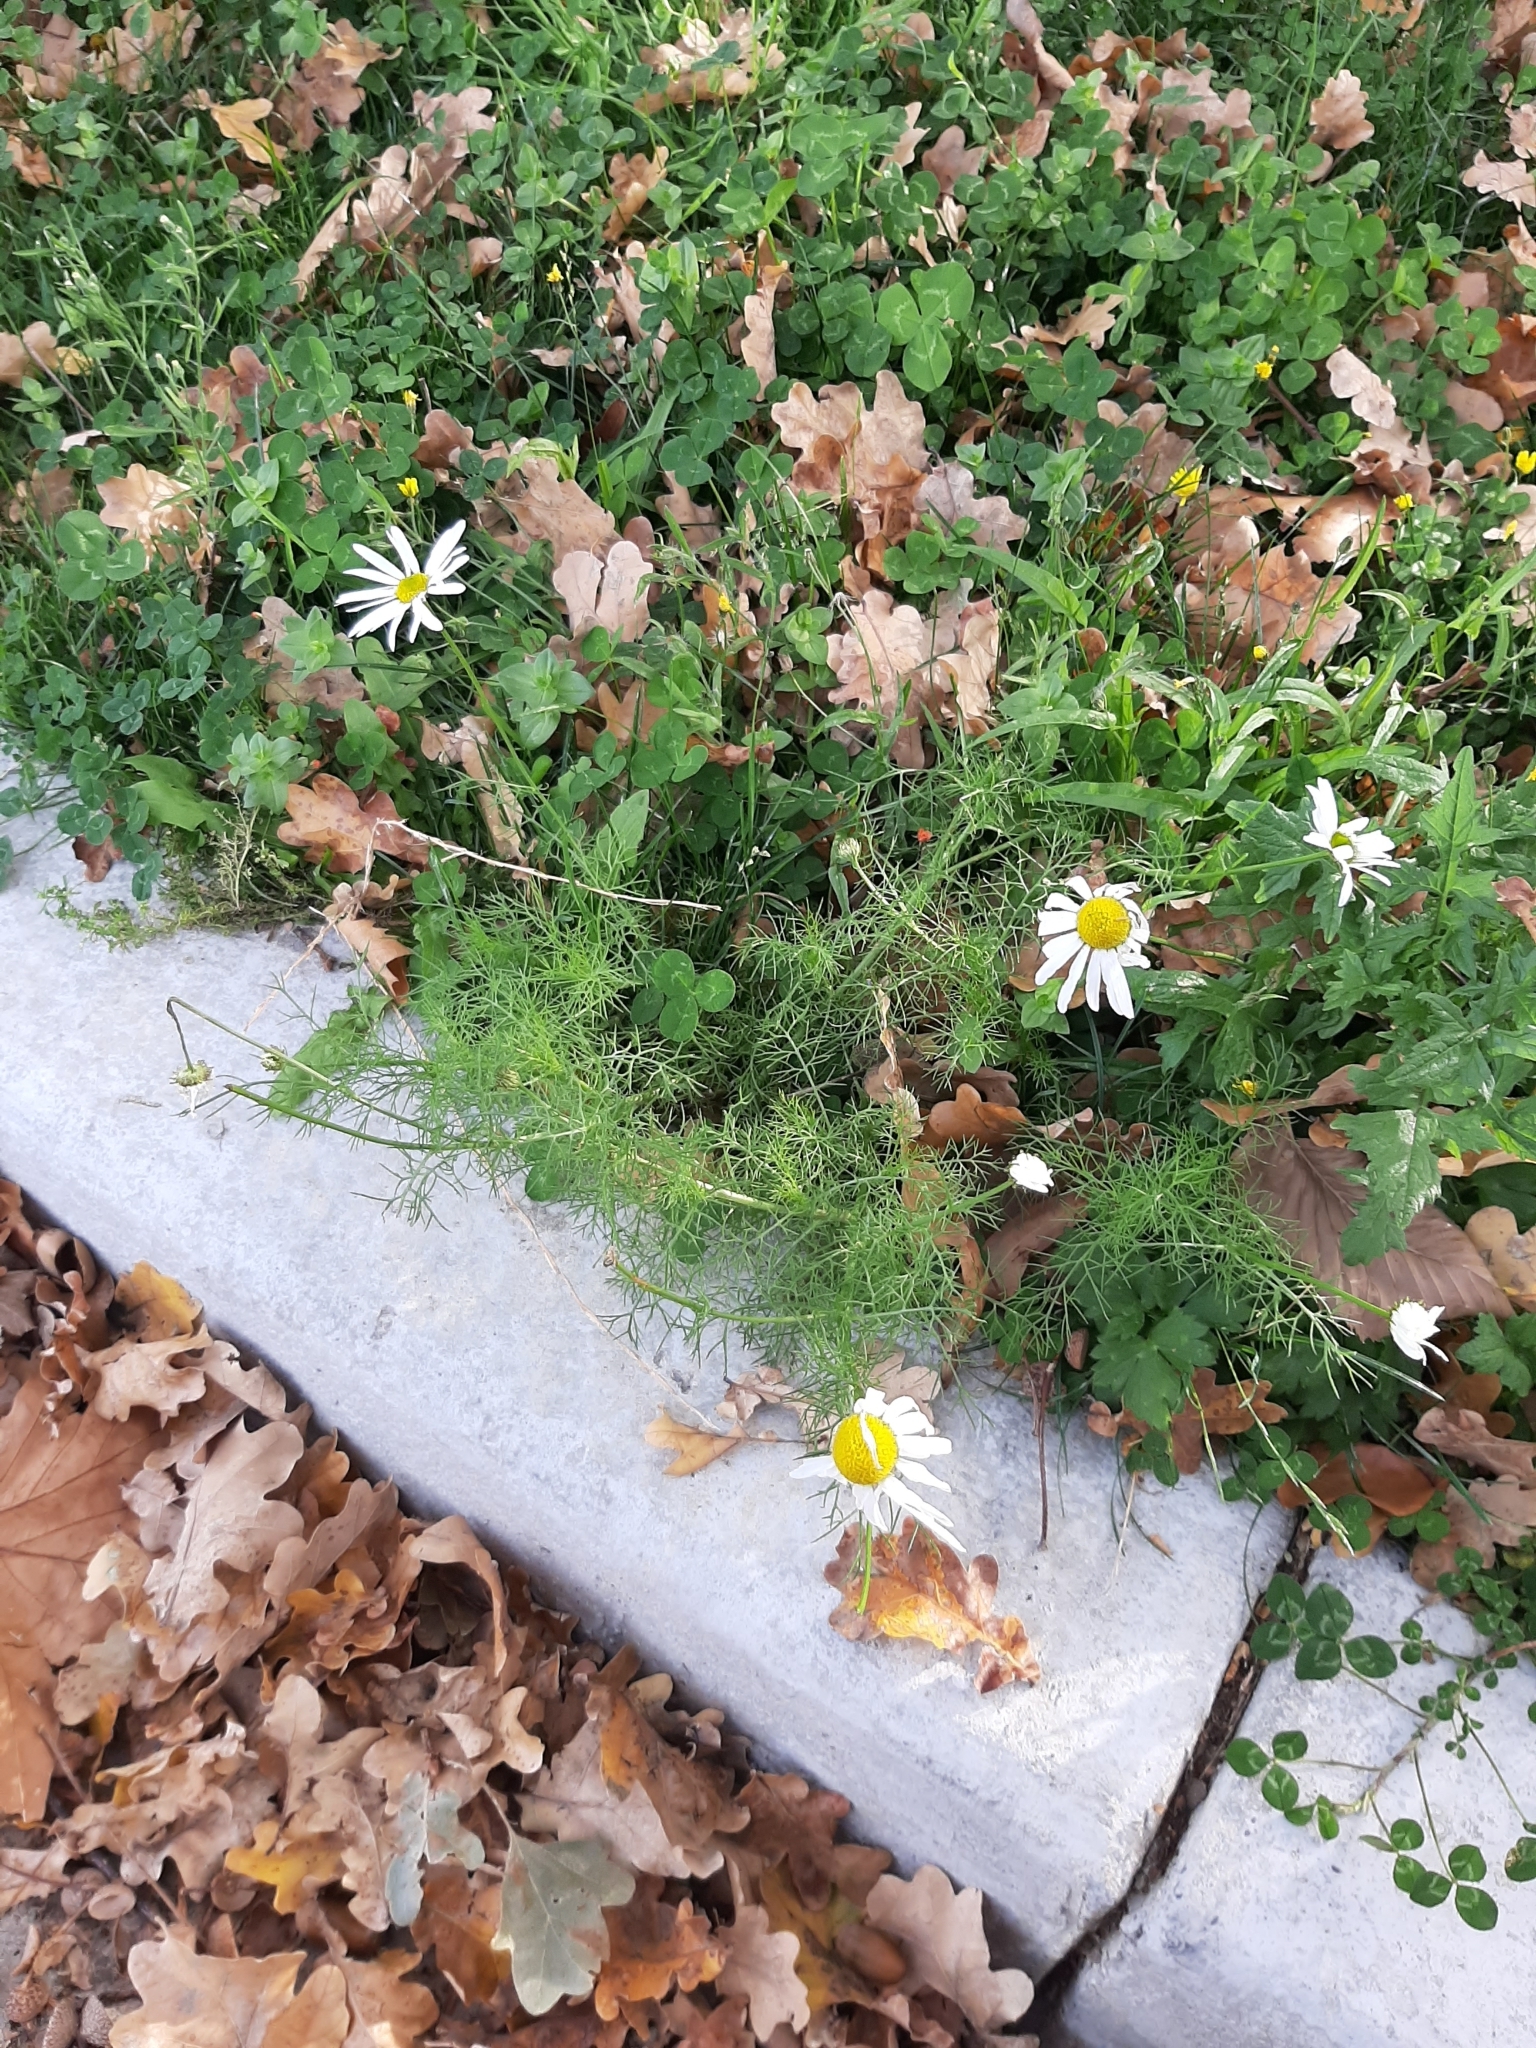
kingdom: Plantae
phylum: Tracheophyta
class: Magnoliopsida
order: Asterales
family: Asteraceae
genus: Tripleurospermum
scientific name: Tripleurospermum inodorum
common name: Scentless mayweed
